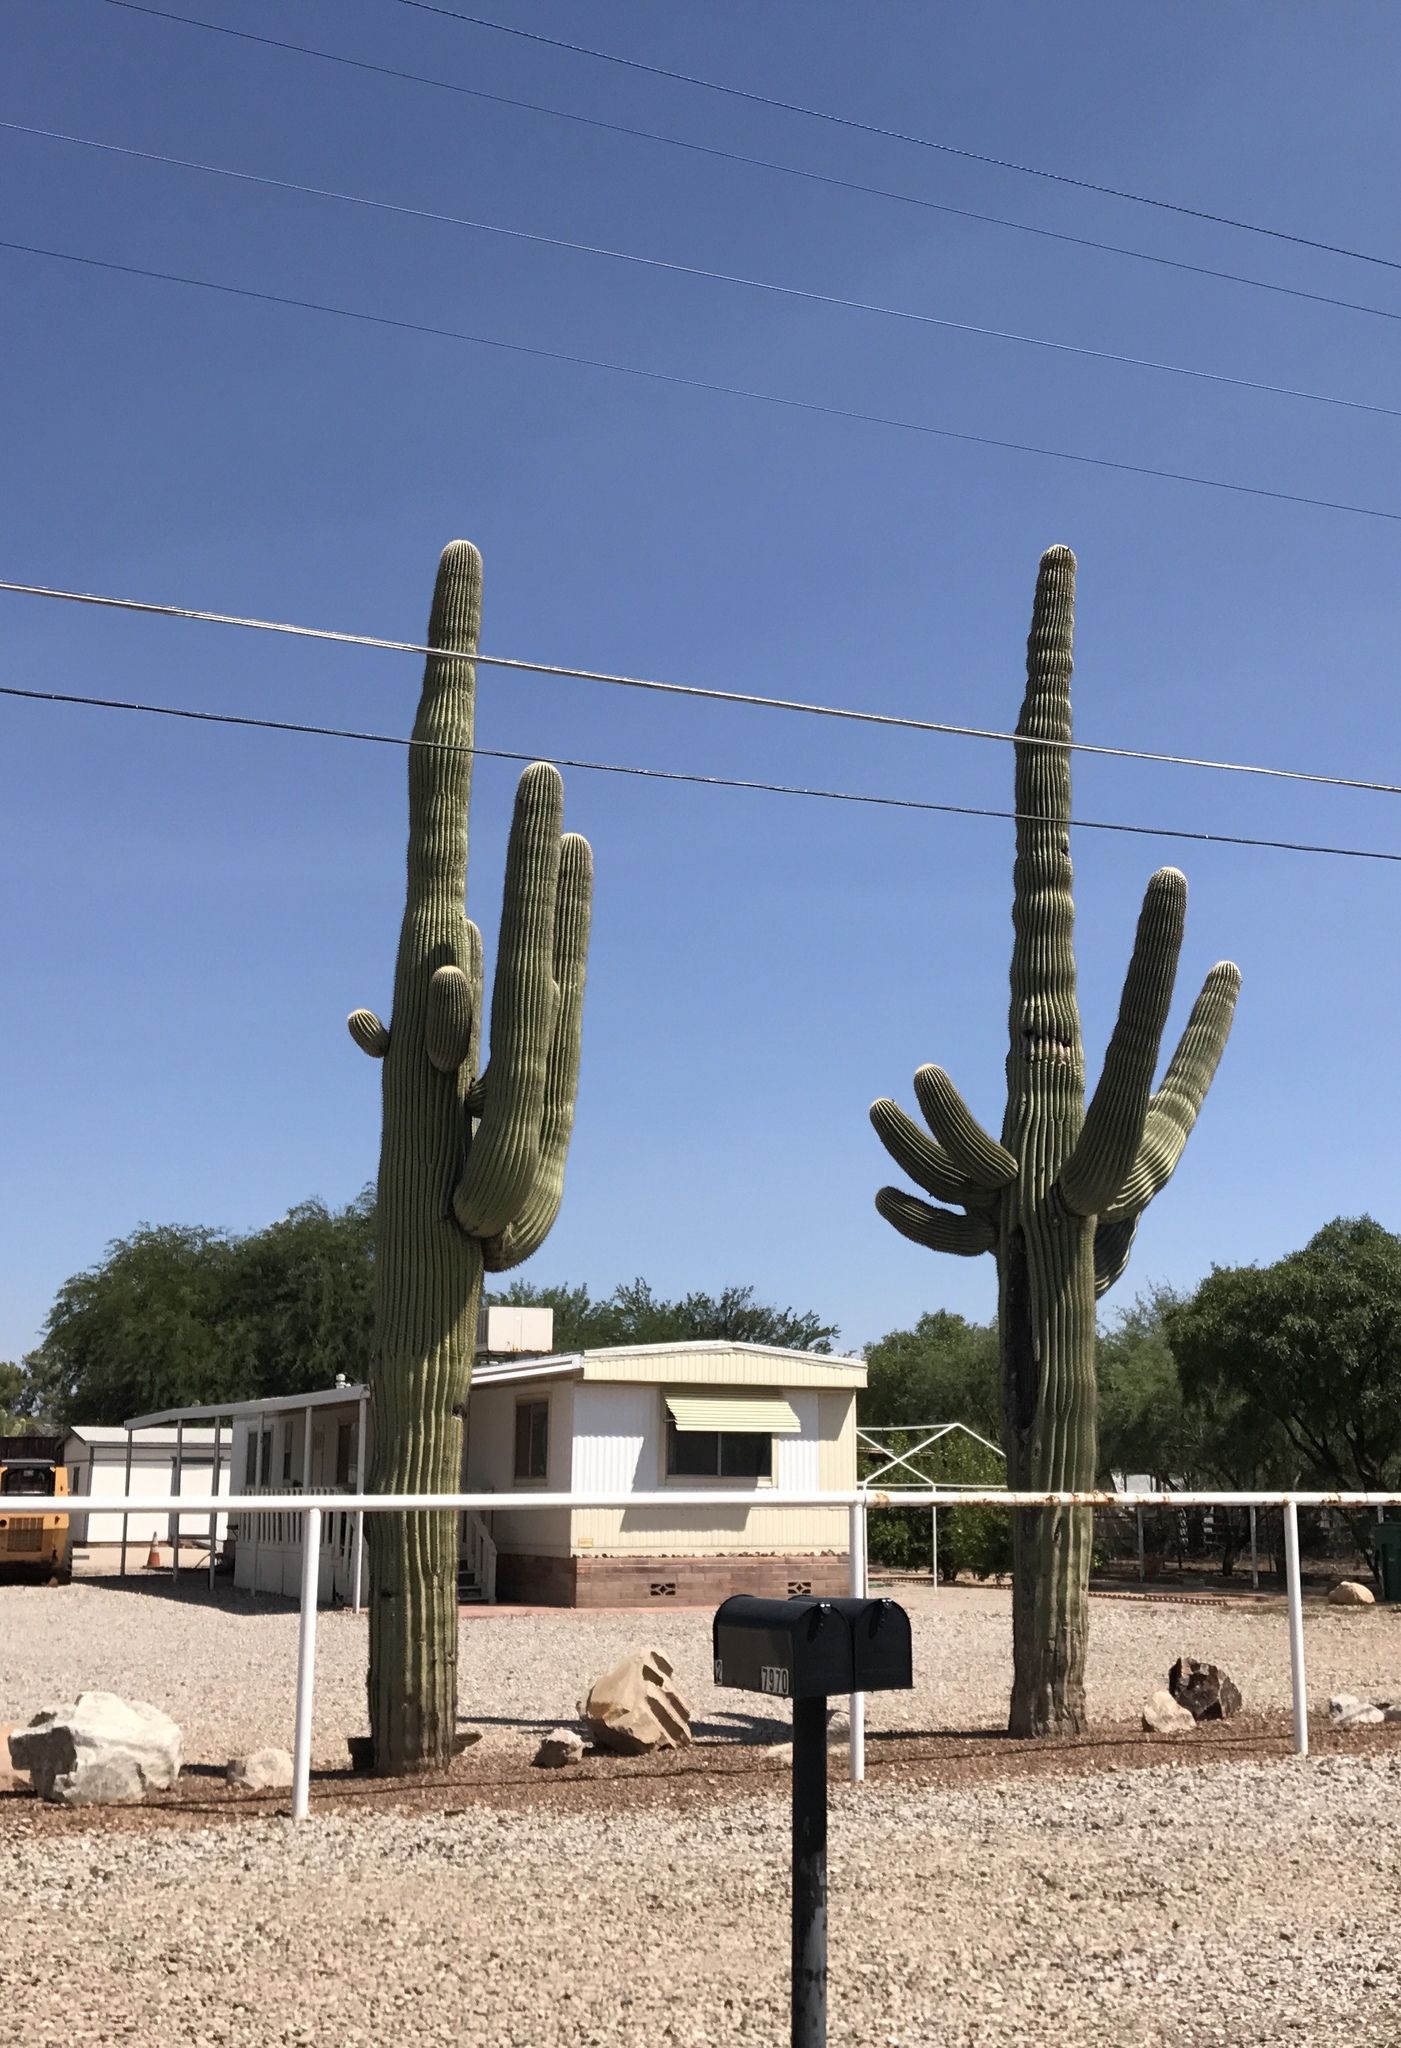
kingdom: Plantae
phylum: Tracheophyta
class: Magnoliopsida
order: Caryophyllales
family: Cactaceae
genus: Carnegiea
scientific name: Carnegiea gigantea
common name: Saguaro
